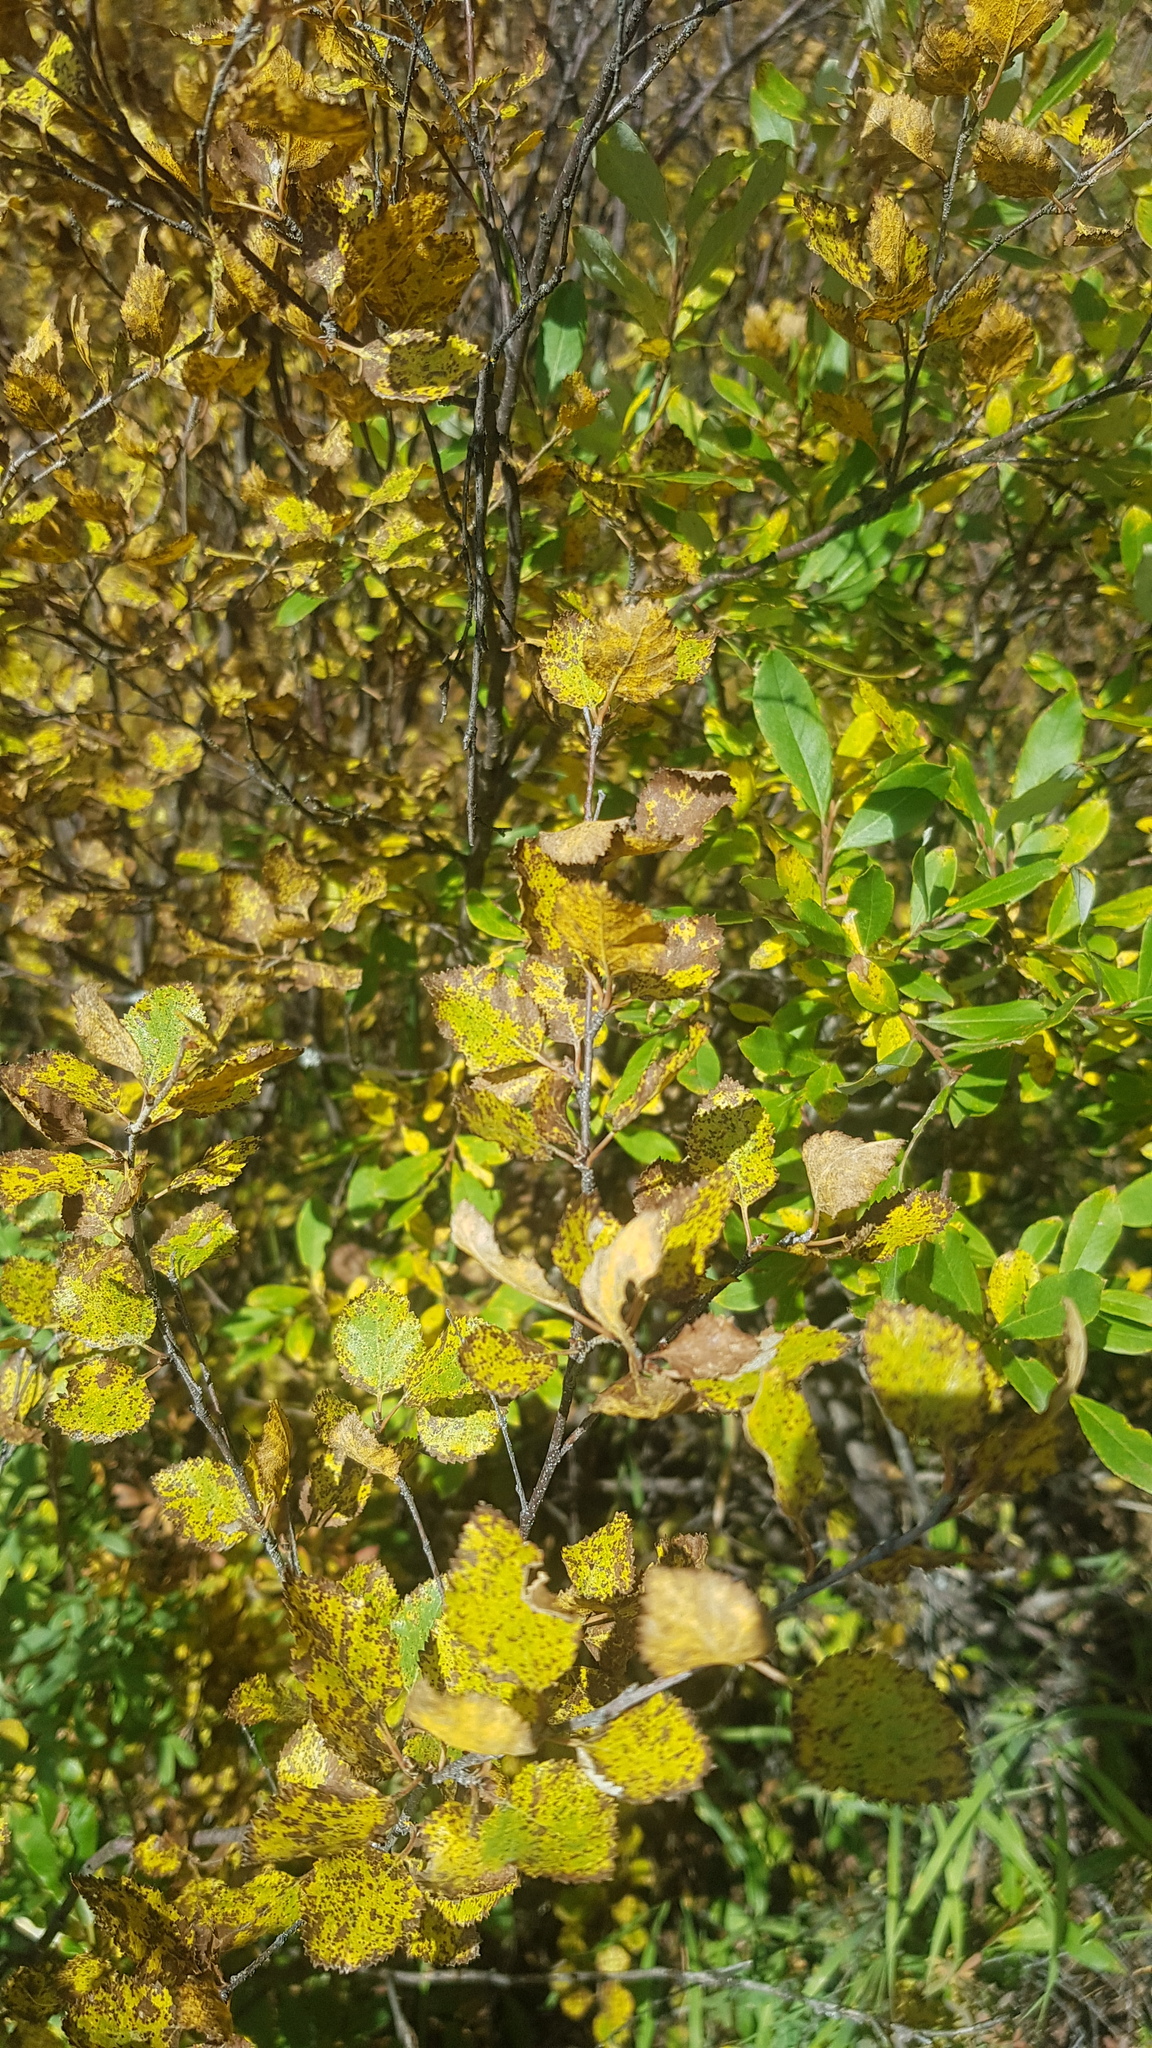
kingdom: Plantae
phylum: Tracheophyta
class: Magnoliopsida
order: Fagales
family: Betulaceae
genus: Betula
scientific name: Betula fruticosa
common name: Japanese bog birch
